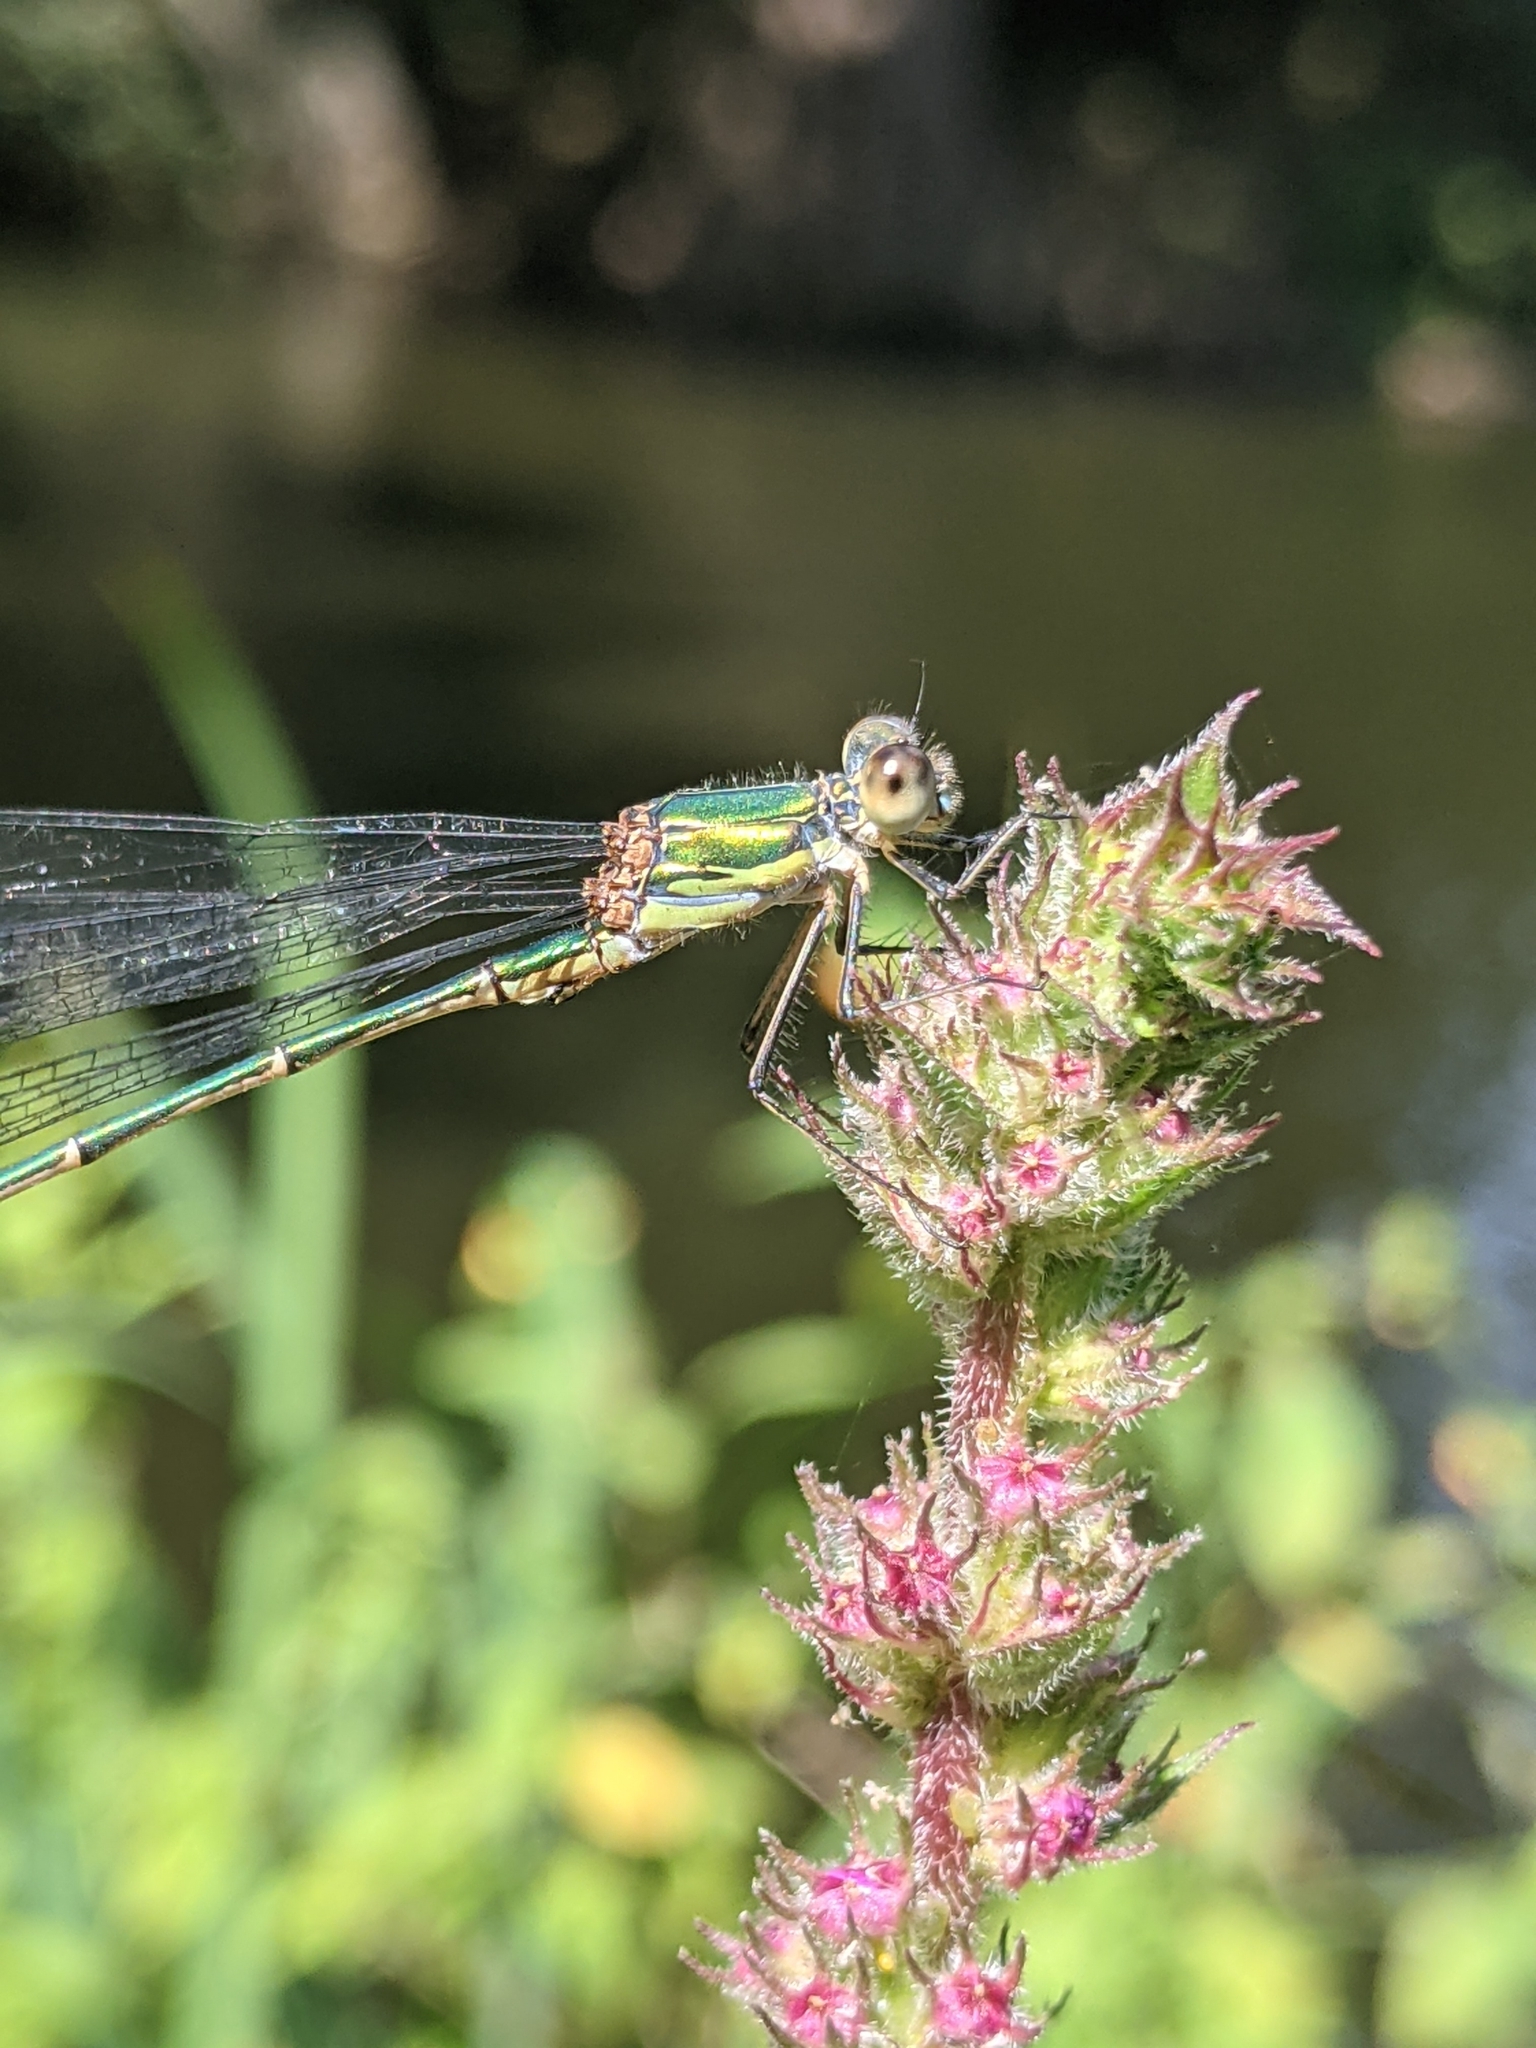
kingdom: Animalia
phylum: Arthropoda
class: Insecta
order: Odonata
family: Lestidae
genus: Chalcolestes
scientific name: Chalcolestes viridis
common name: Green emerald damselfly
